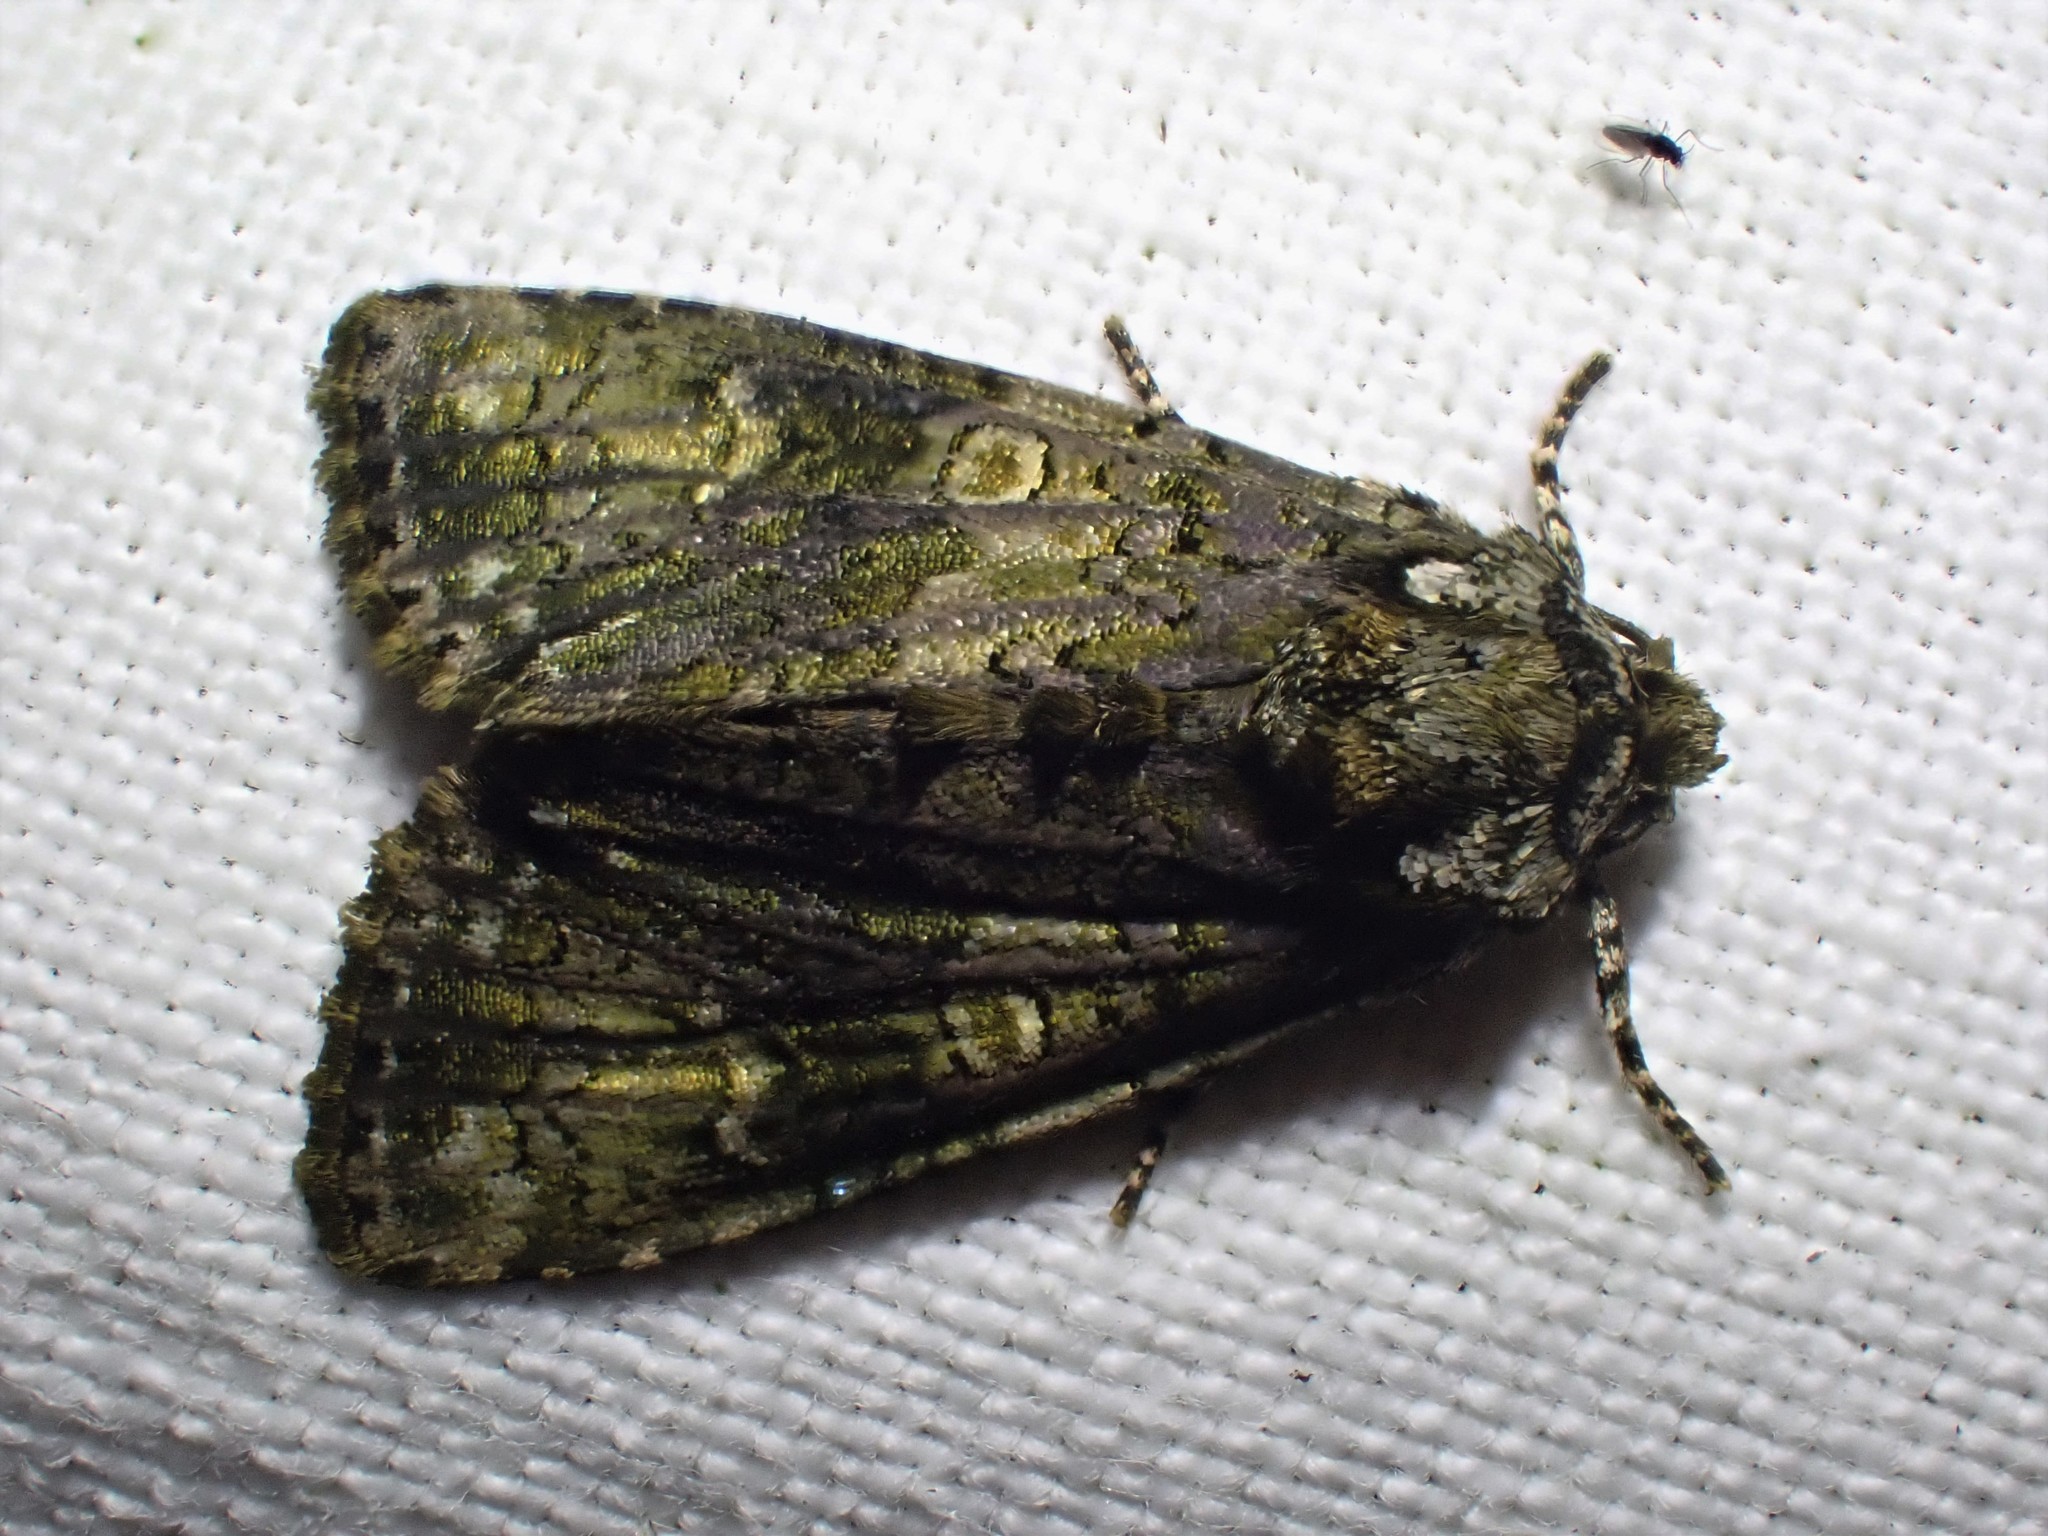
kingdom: Animalia
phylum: Arthropoda
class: Insecta
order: Lepidoptera
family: Noctuidae
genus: Craniophora
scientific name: Craniophora ligustri
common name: Coronet
